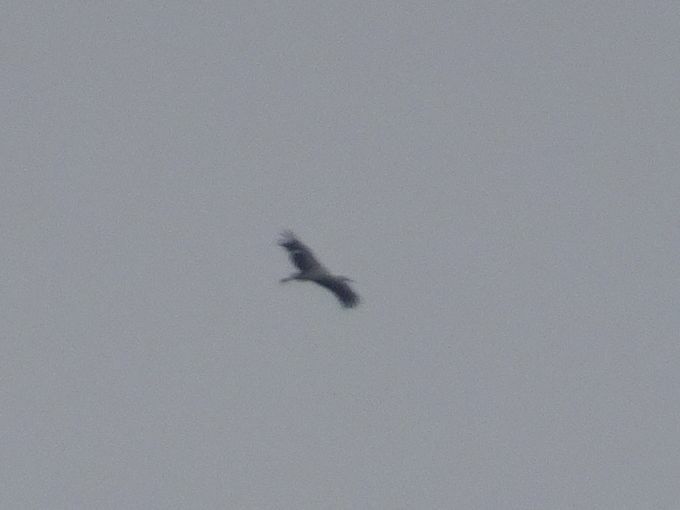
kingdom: Animalia
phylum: Chordata
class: Aves
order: Ciconiiformes
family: Ciconiidae
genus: Ciconia
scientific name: Ciconia ciconia
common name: White stork
